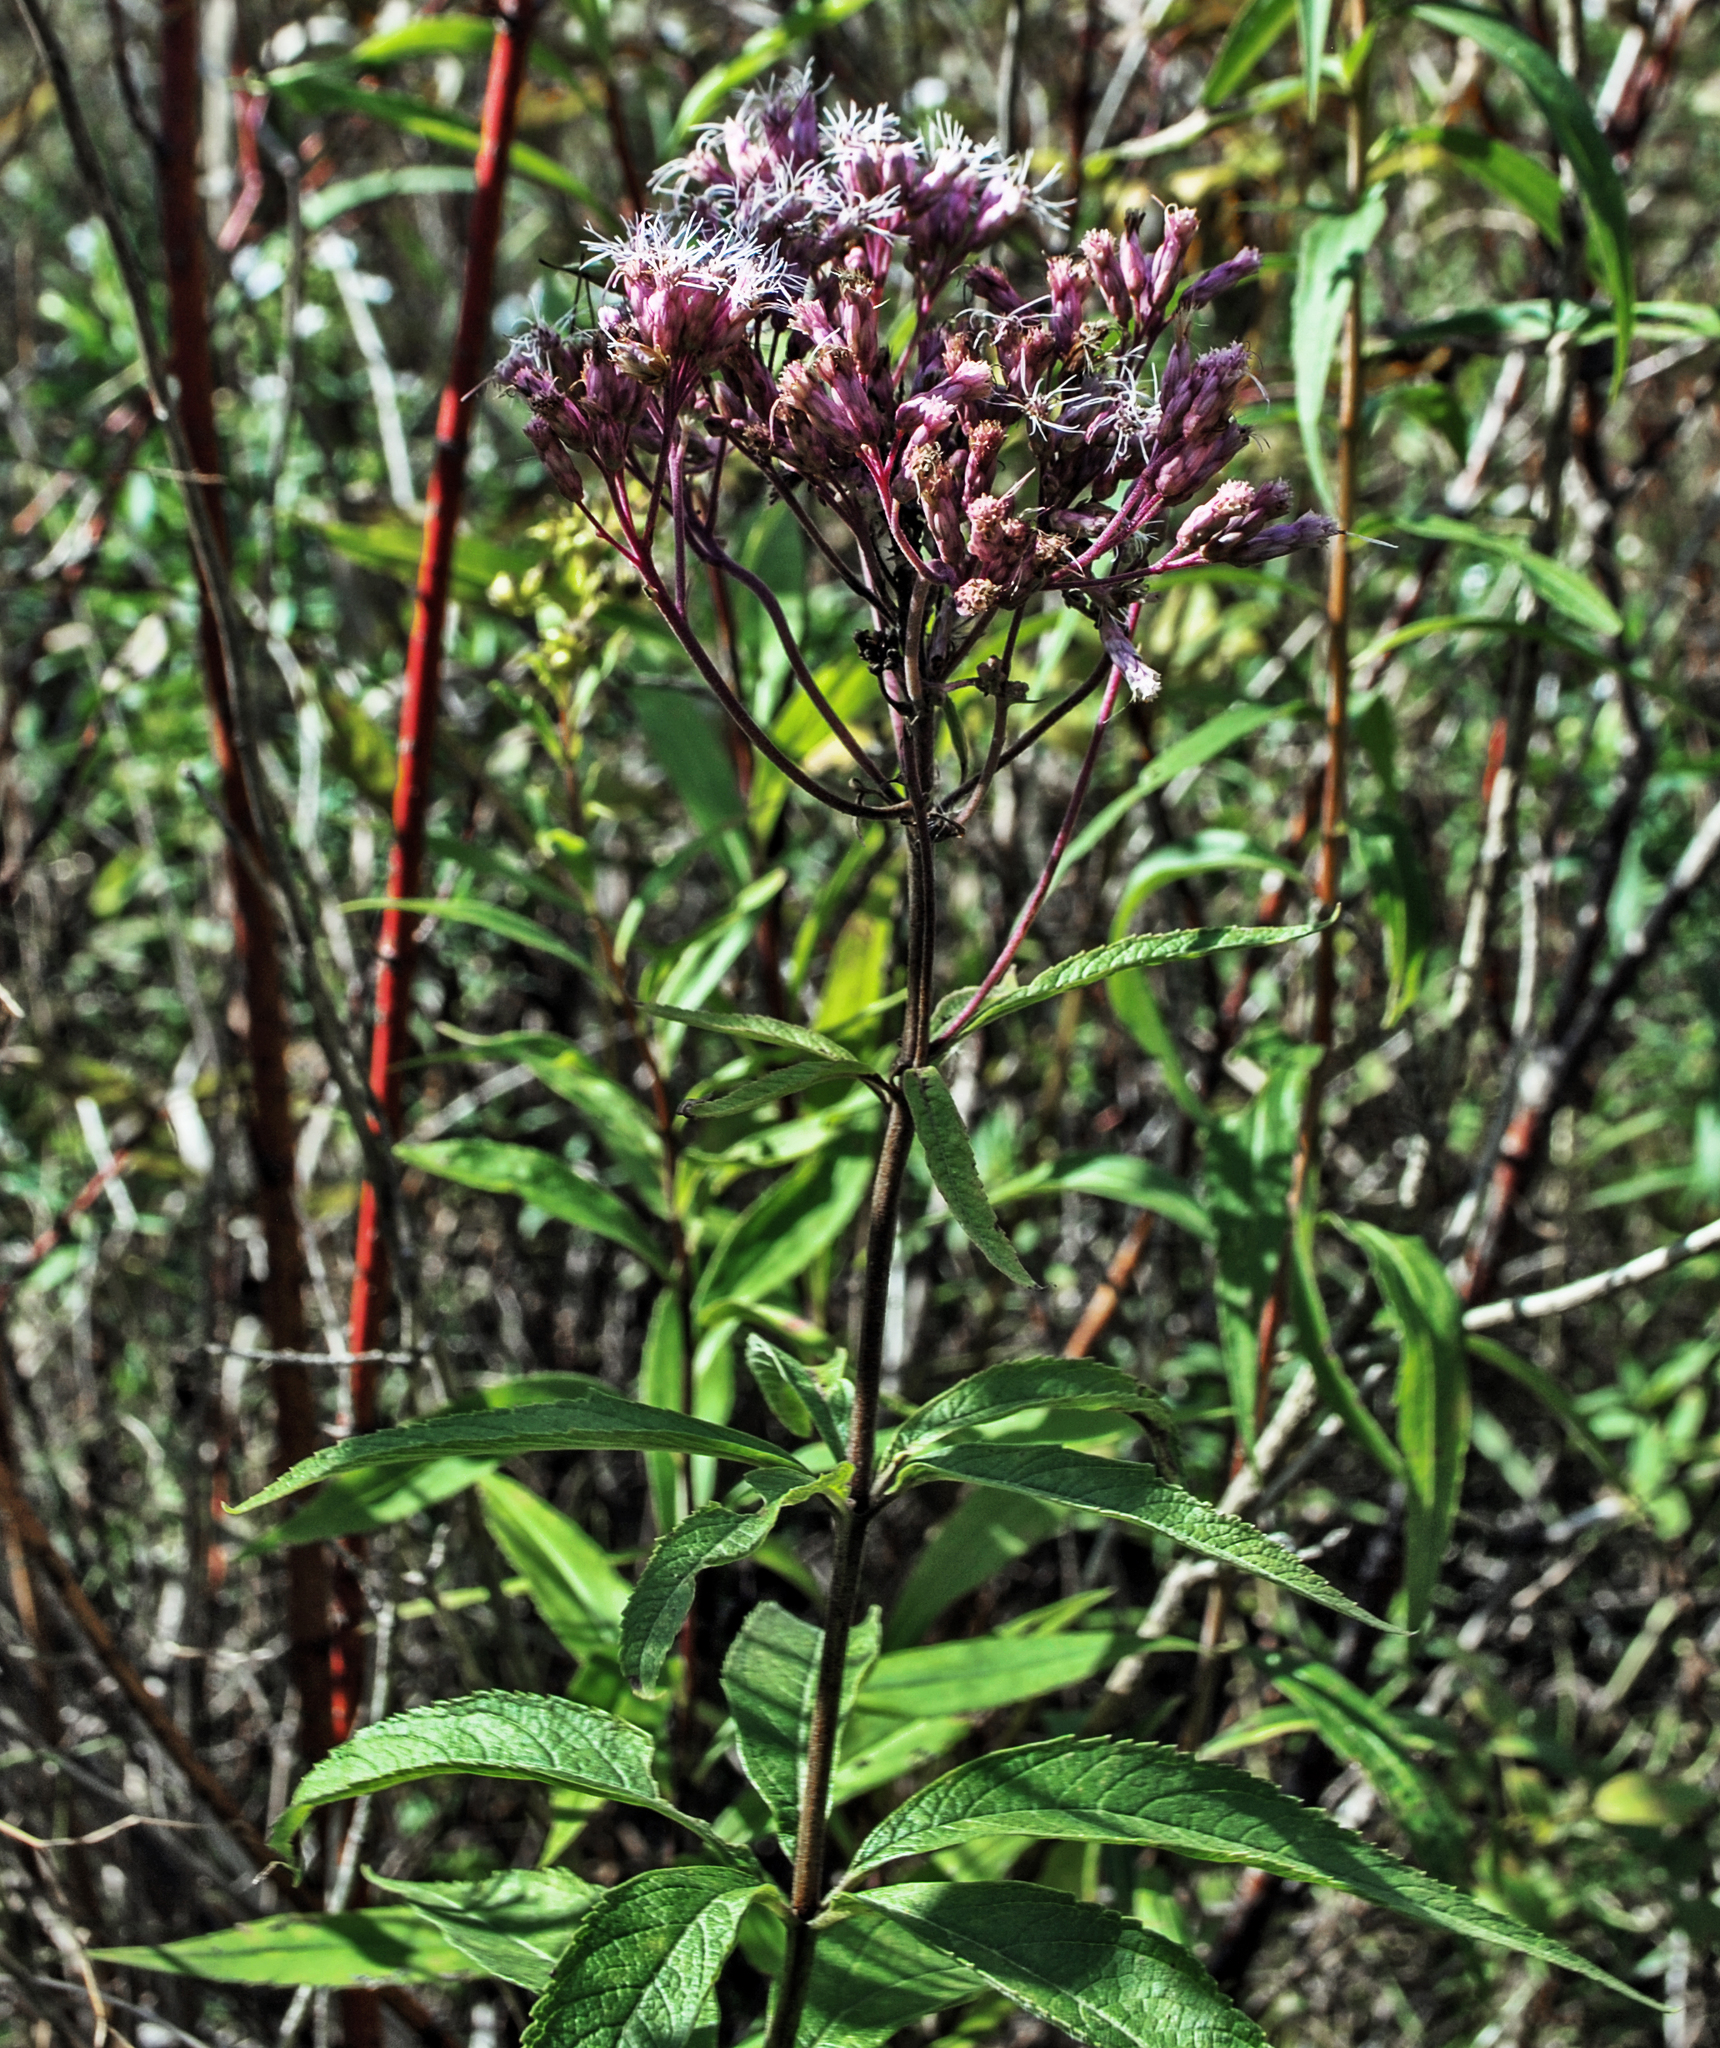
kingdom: Plantae
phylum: Tracheophyta
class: Magnoliopsida
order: Asterales
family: Asteraceae
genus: Eutrochium
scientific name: Eutrochium maculatum
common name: Spotted joe pye weed
